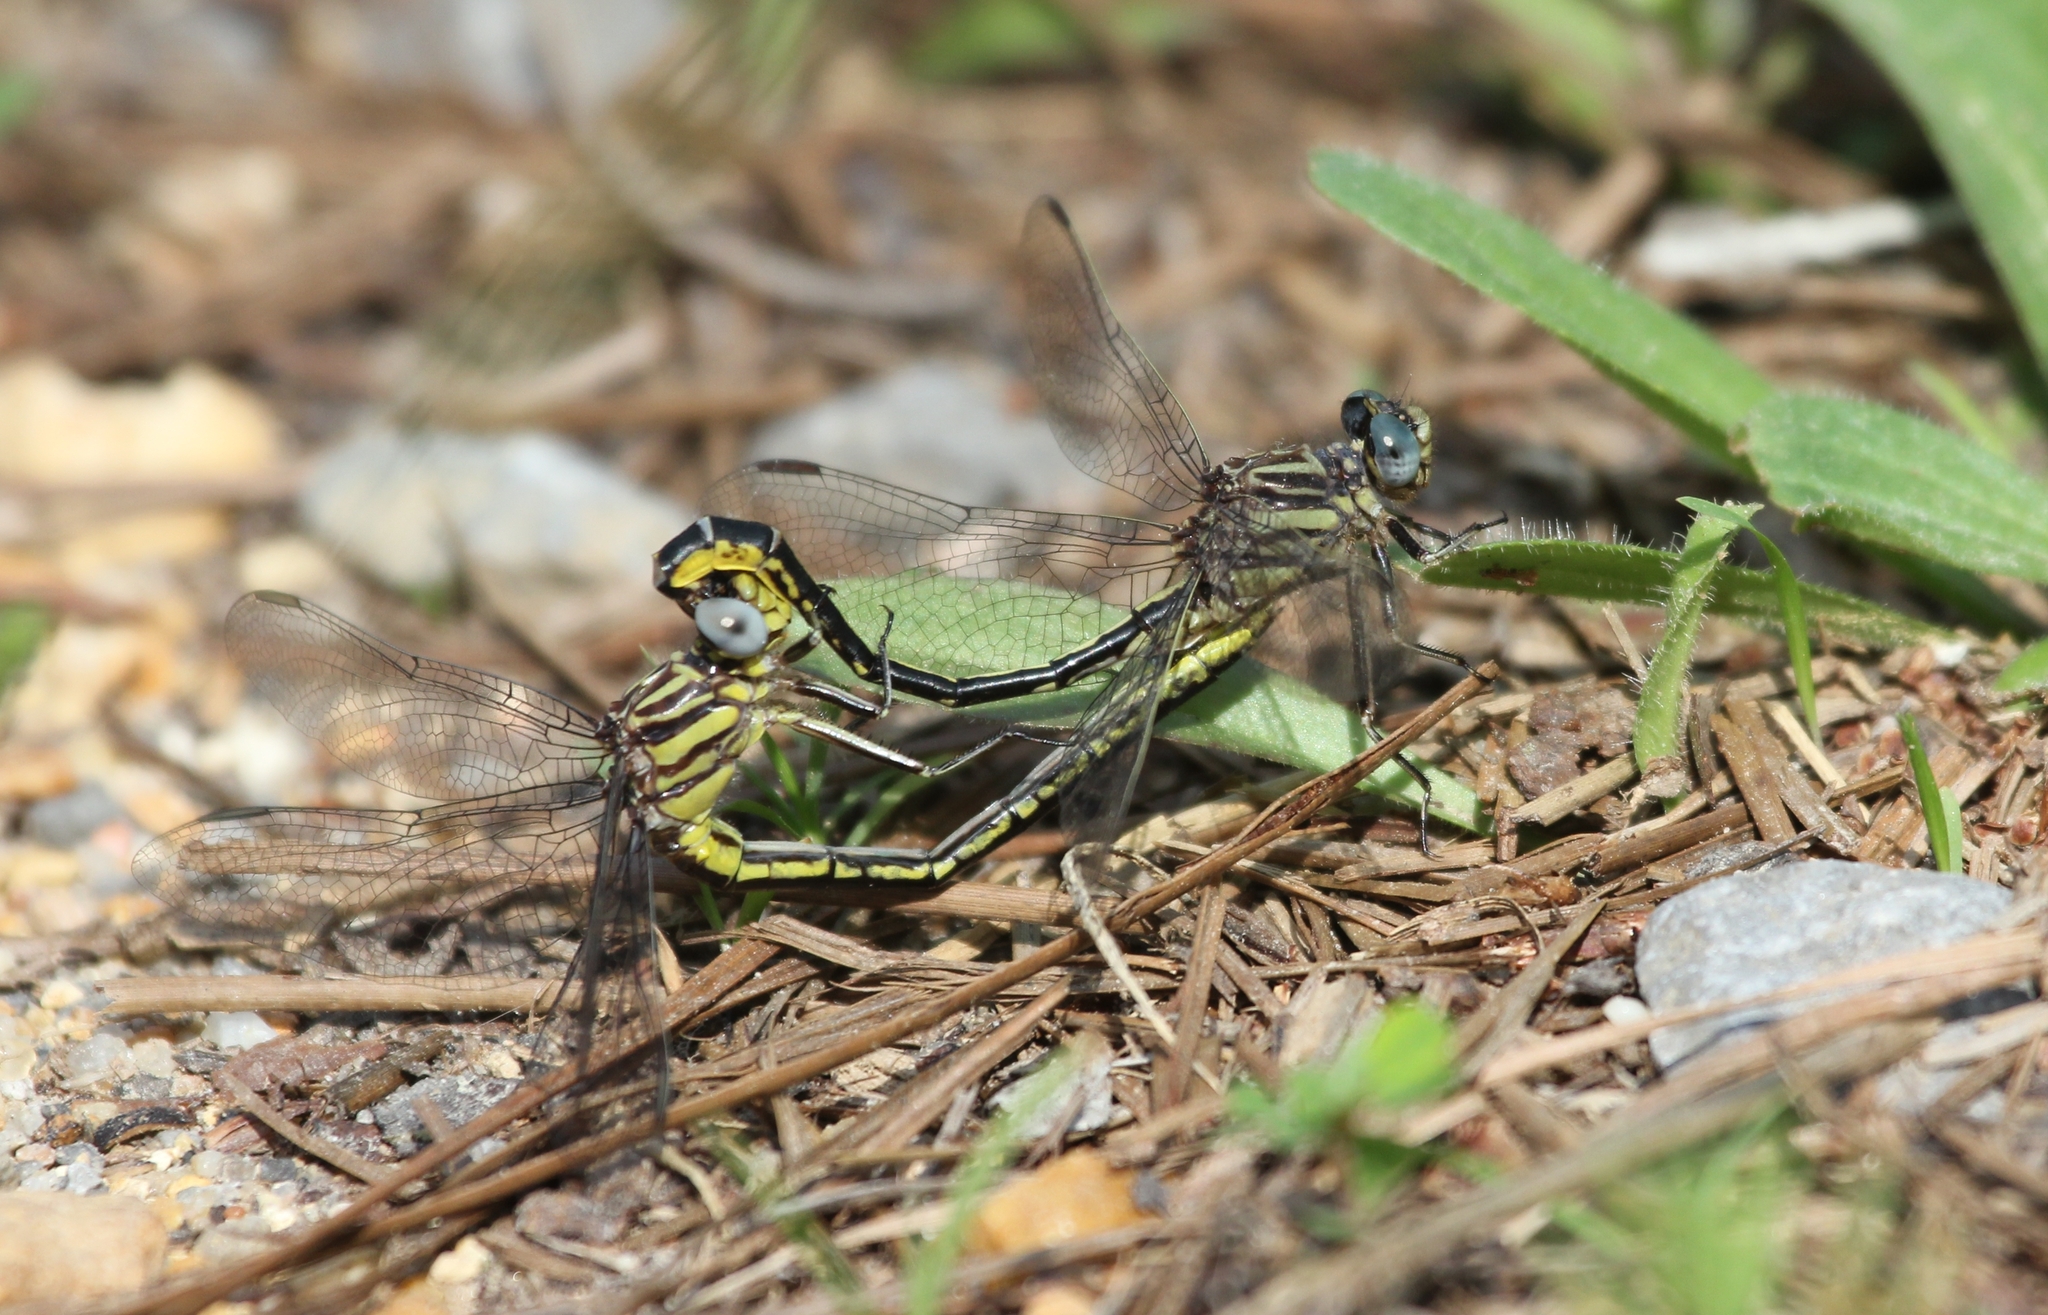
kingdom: Animalia
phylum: Arthropoda
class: Insecta
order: Odonata
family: Gomphidae
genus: Phanogomphus
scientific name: Phanogomphus hodgesi
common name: Hodges' clubtail
